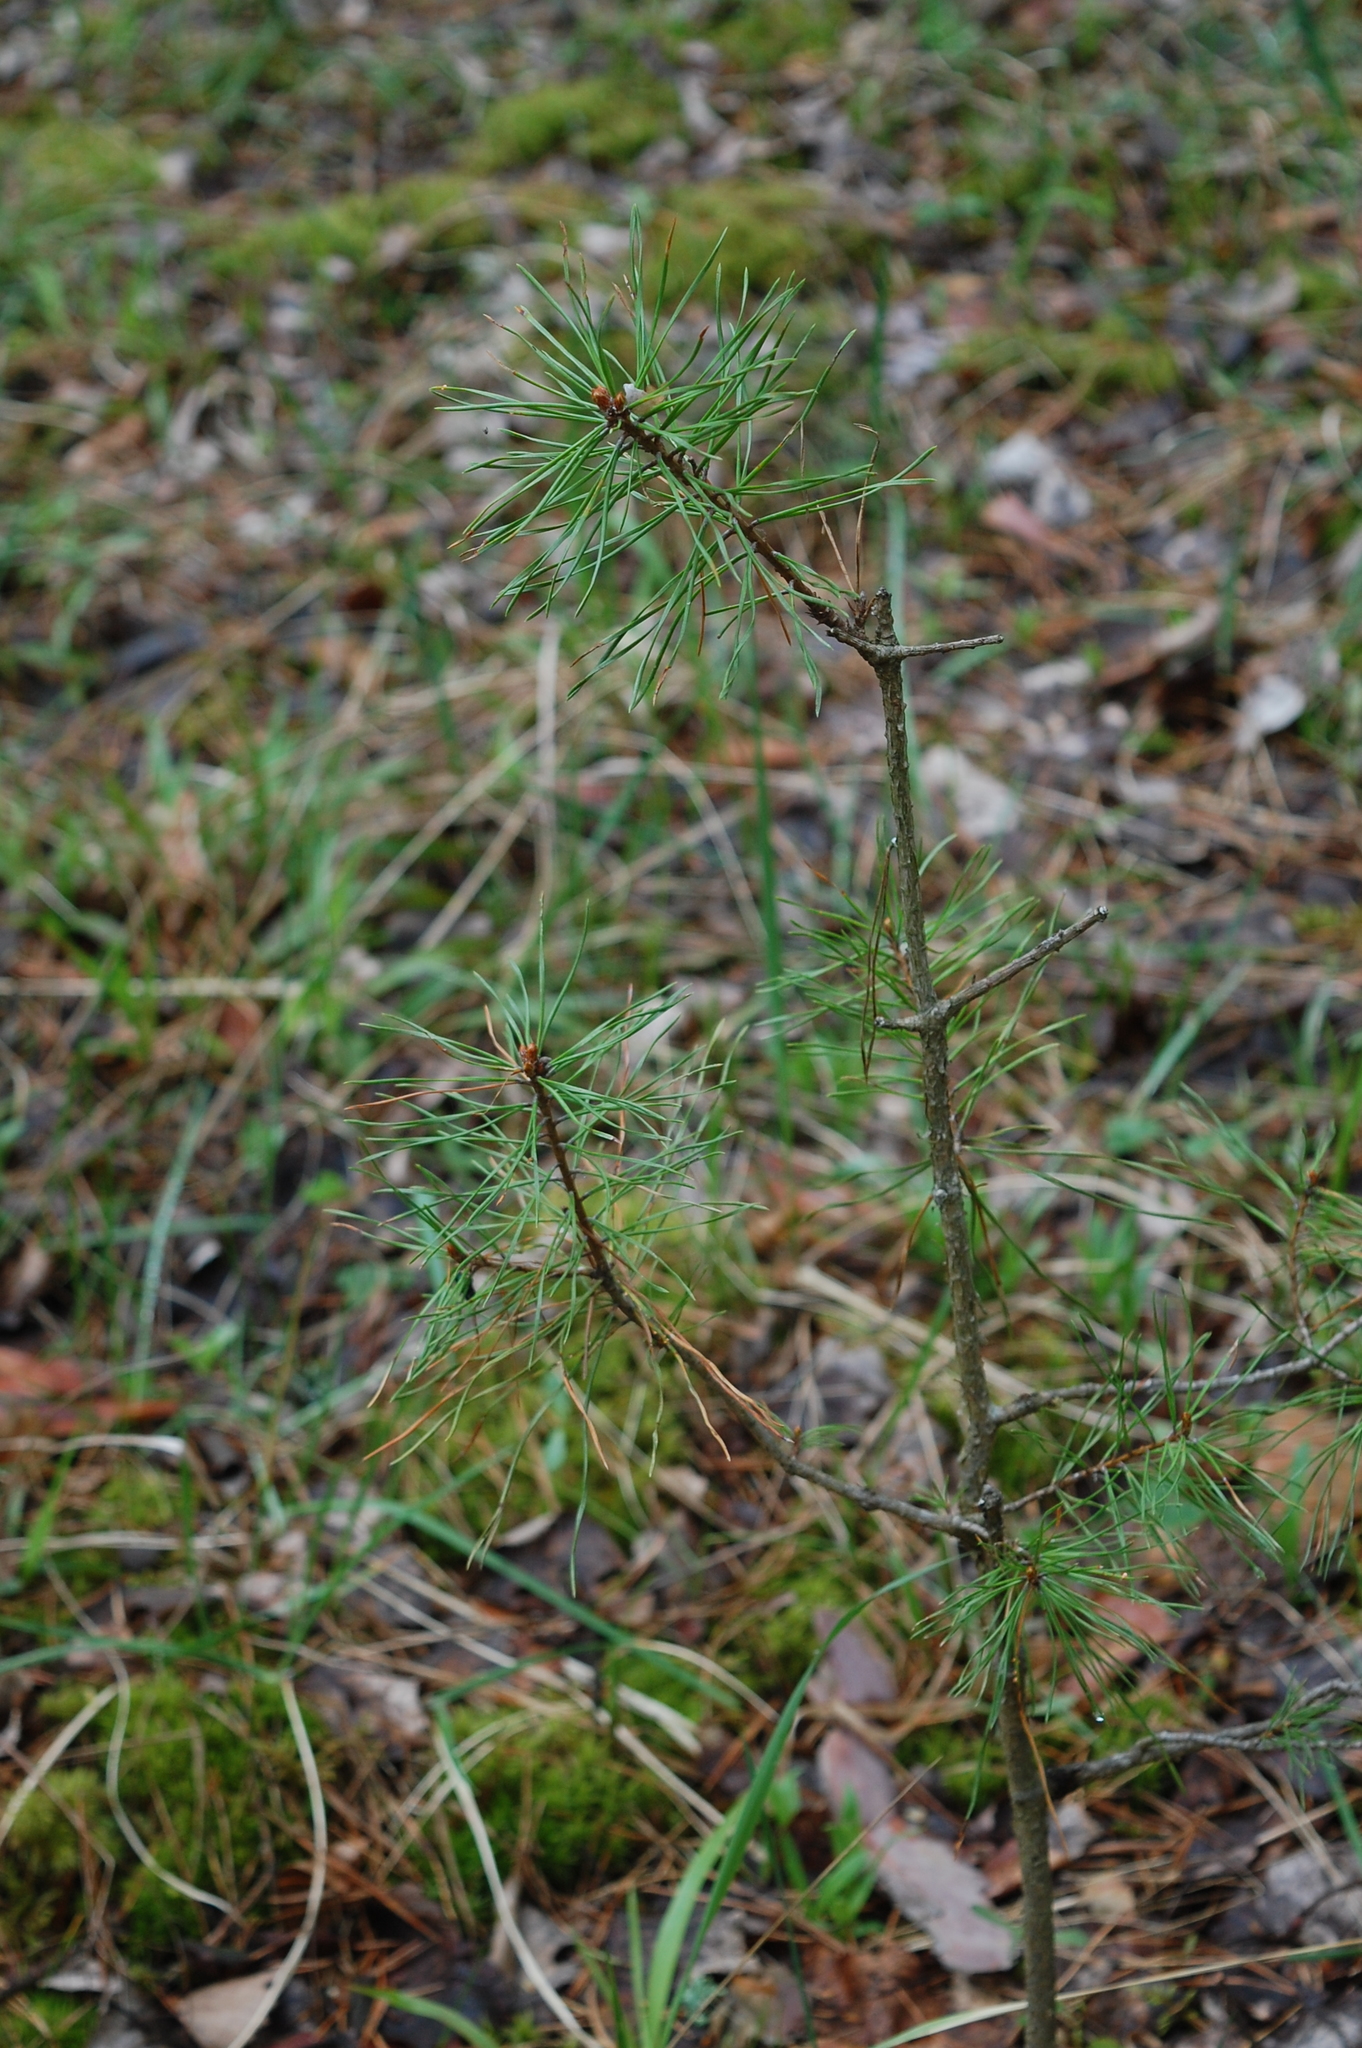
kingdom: Plantae
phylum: Tracheophyta
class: Pinopsida
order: Pinales
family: Pinaceae
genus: Pinus
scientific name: Pinus sylvestris
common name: Scots pine
